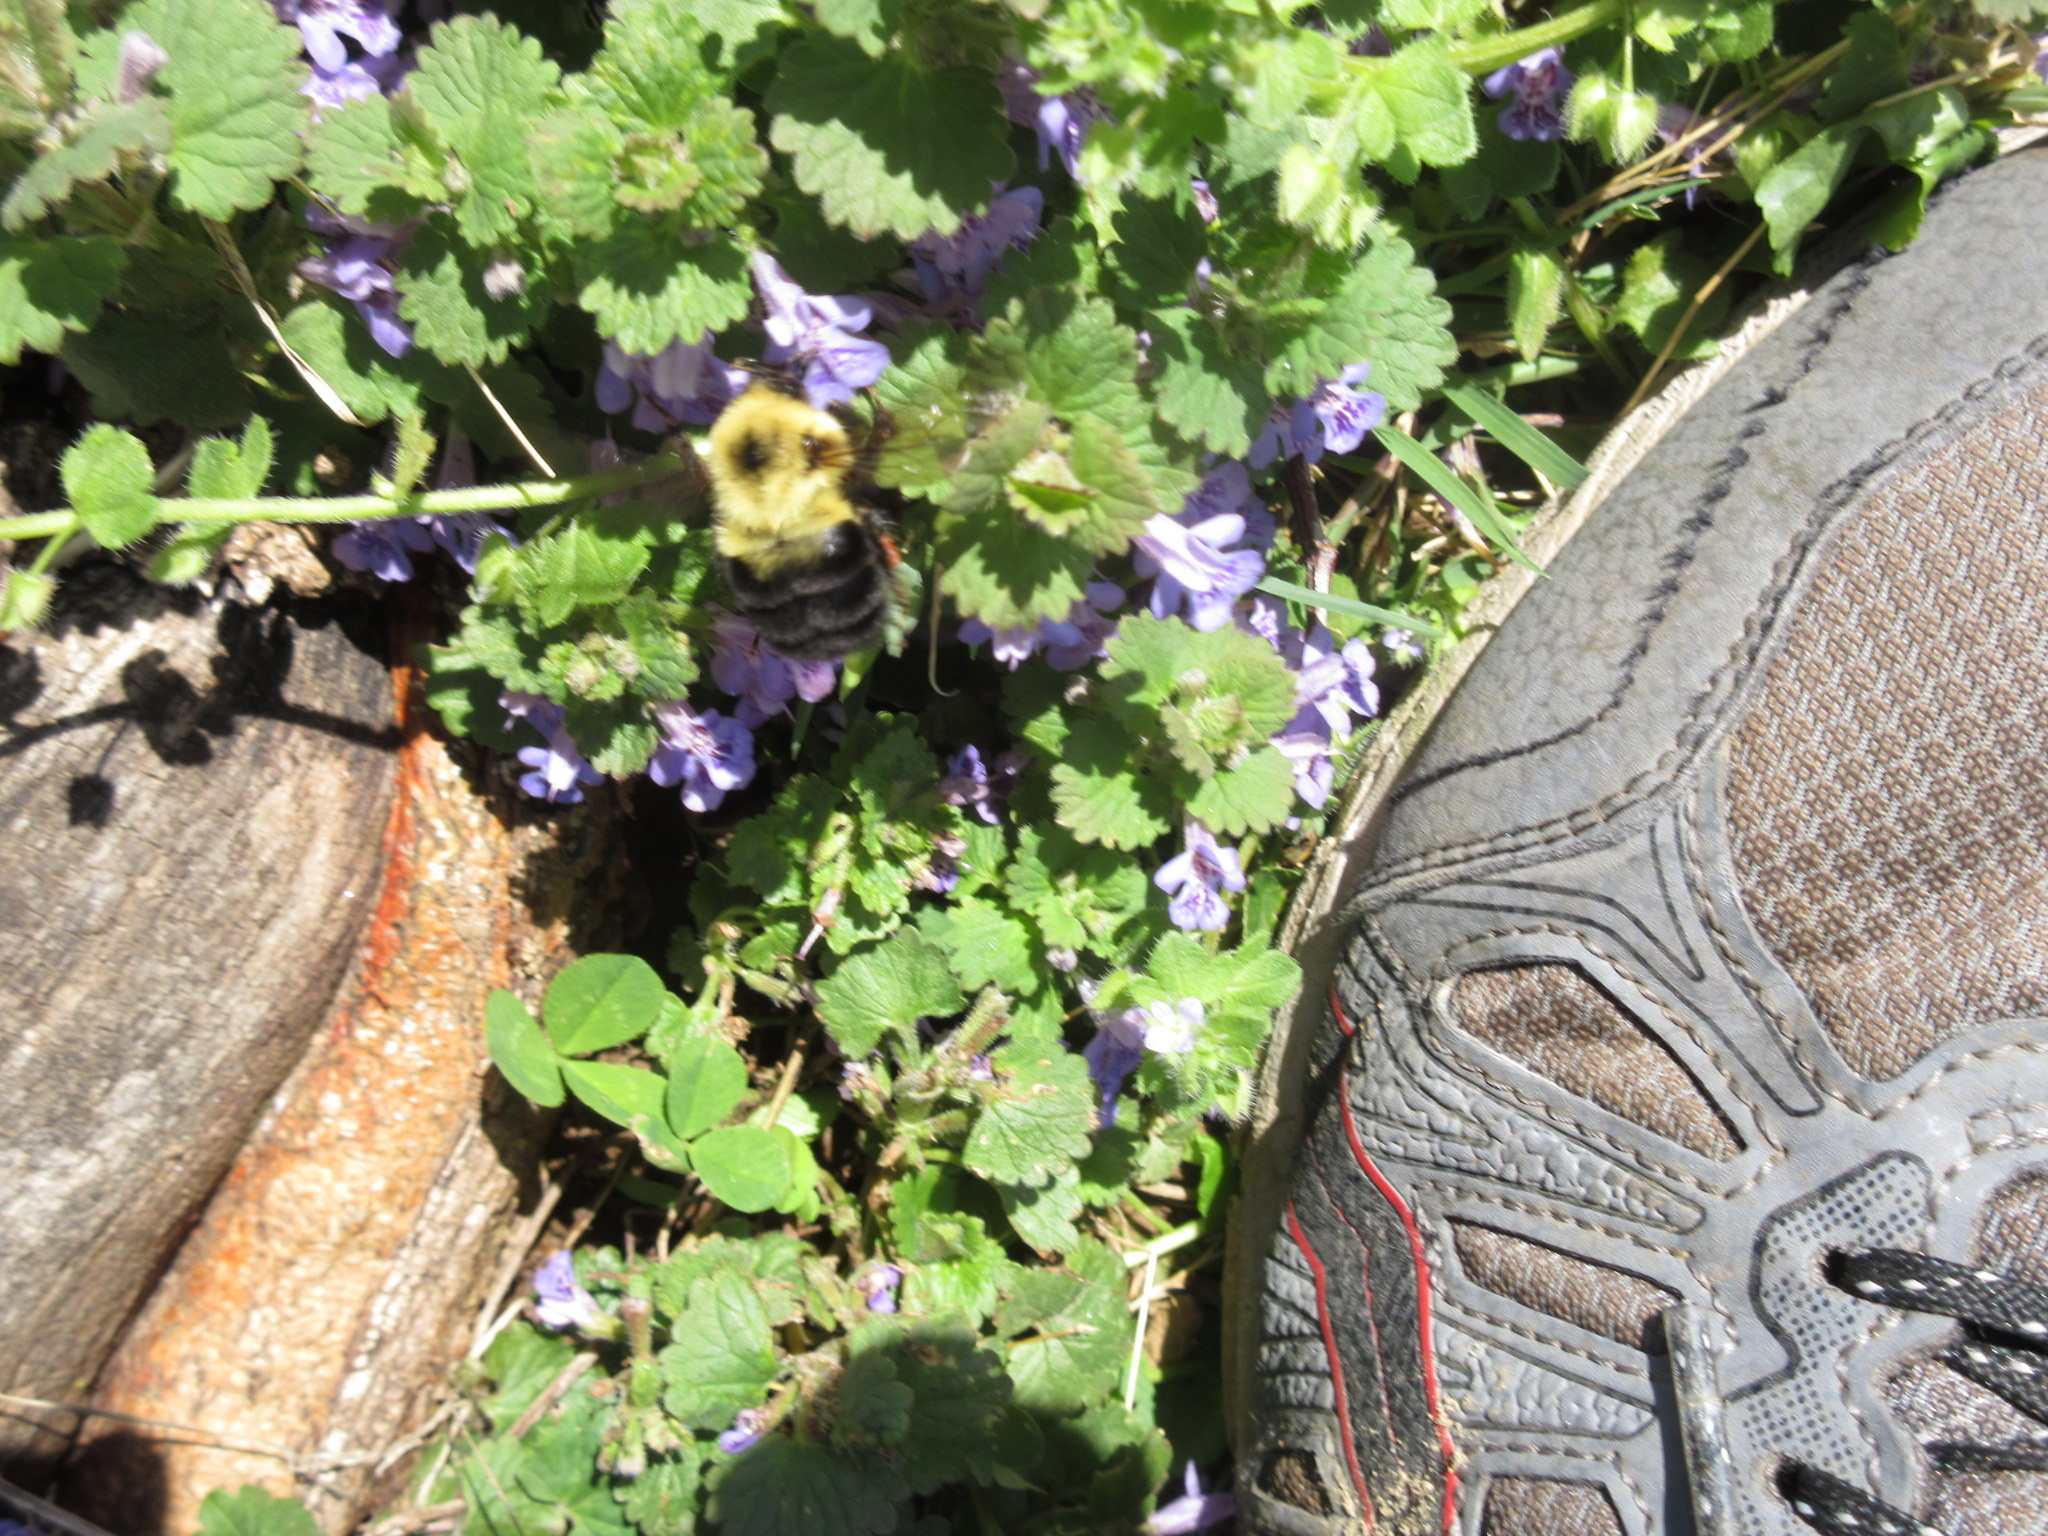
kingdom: Animalia
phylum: Arthropoda
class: Insecta
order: Hymenoptera
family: Apidae
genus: Bombus
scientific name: Bombus bimaculatus
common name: Two-spotted bumble bee
